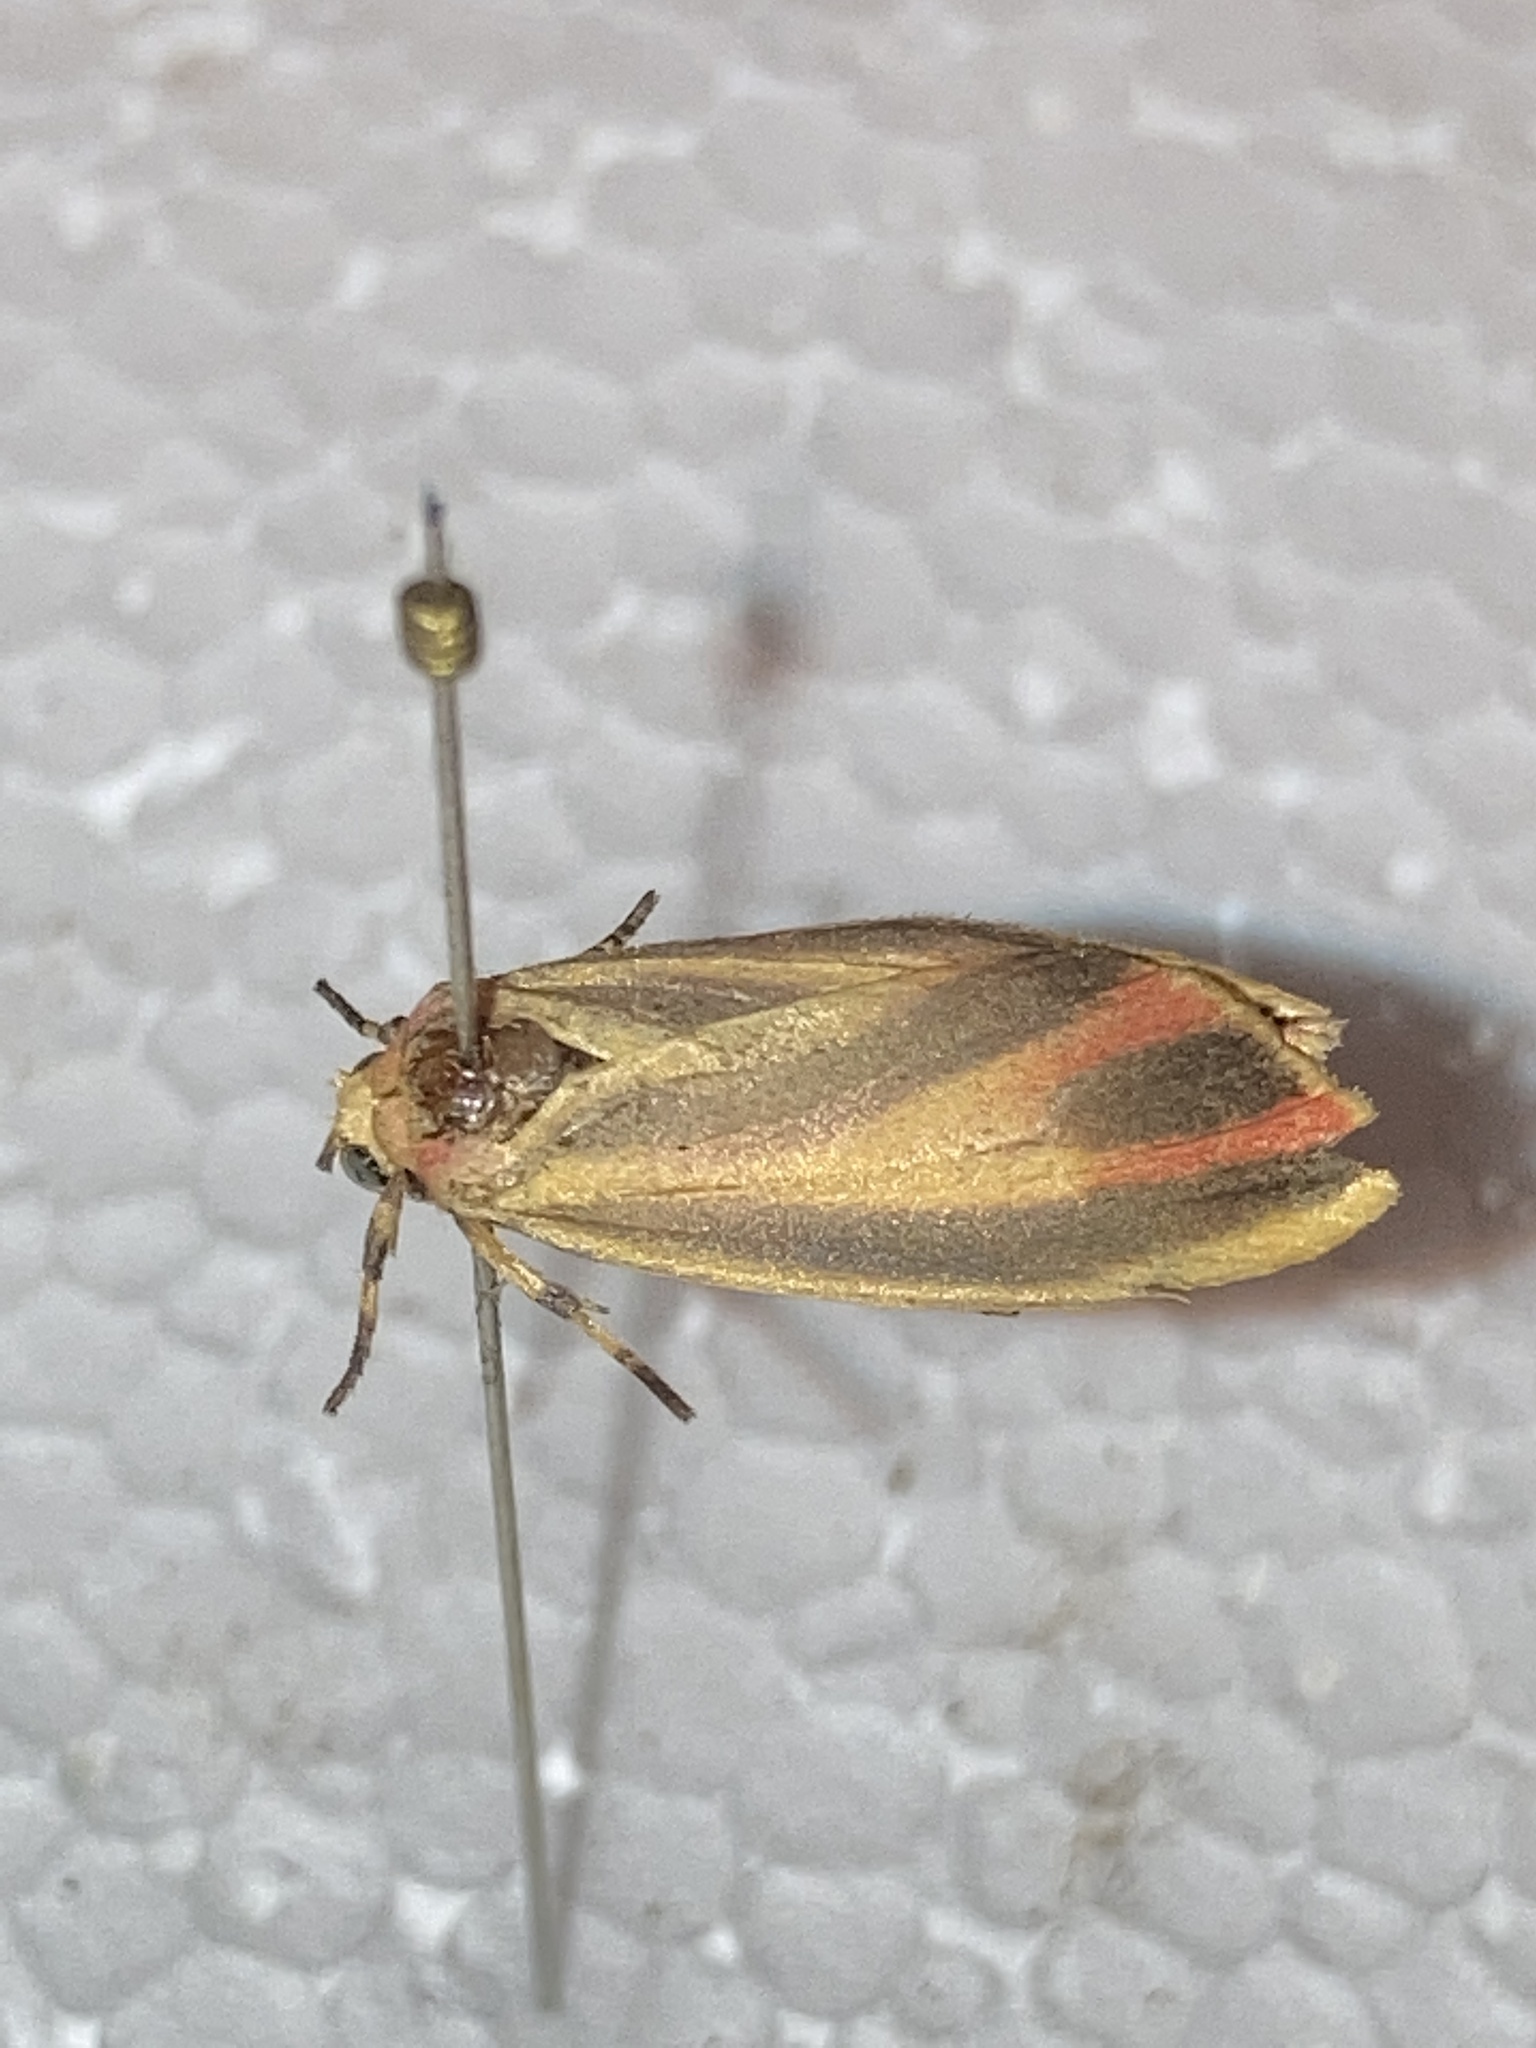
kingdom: Animalia
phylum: Arthropoda
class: Insecta
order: Lepidoptera
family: Erebidae
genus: Hypoprepia
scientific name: Hypoprepia fucosa
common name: Painted lichen moth
